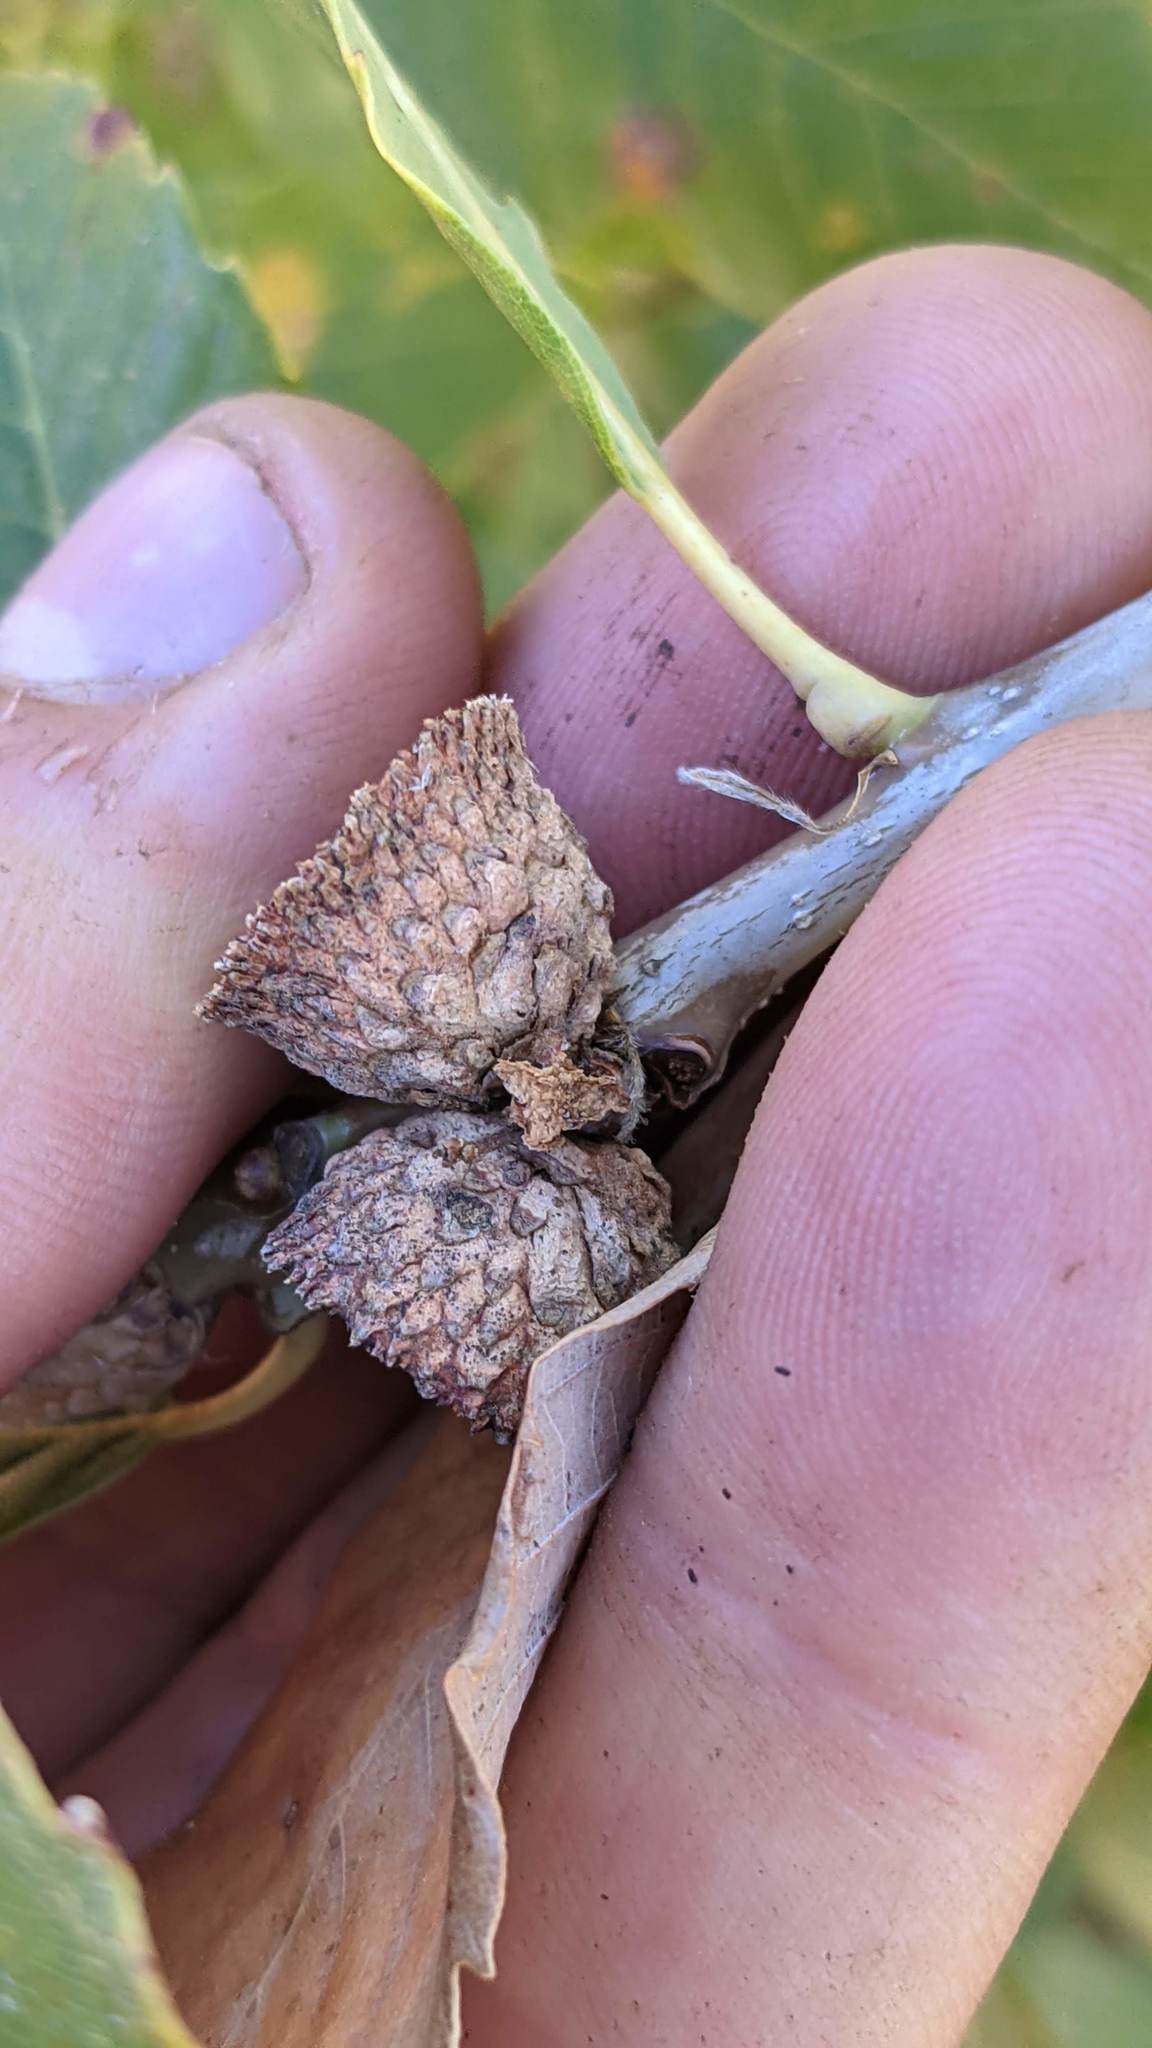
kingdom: Plantae
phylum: Tracheophyta
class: Magnoliopsida
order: Fagales
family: Fagaceae
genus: Quercus
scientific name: Quercus sadleriana
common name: Deer oak
